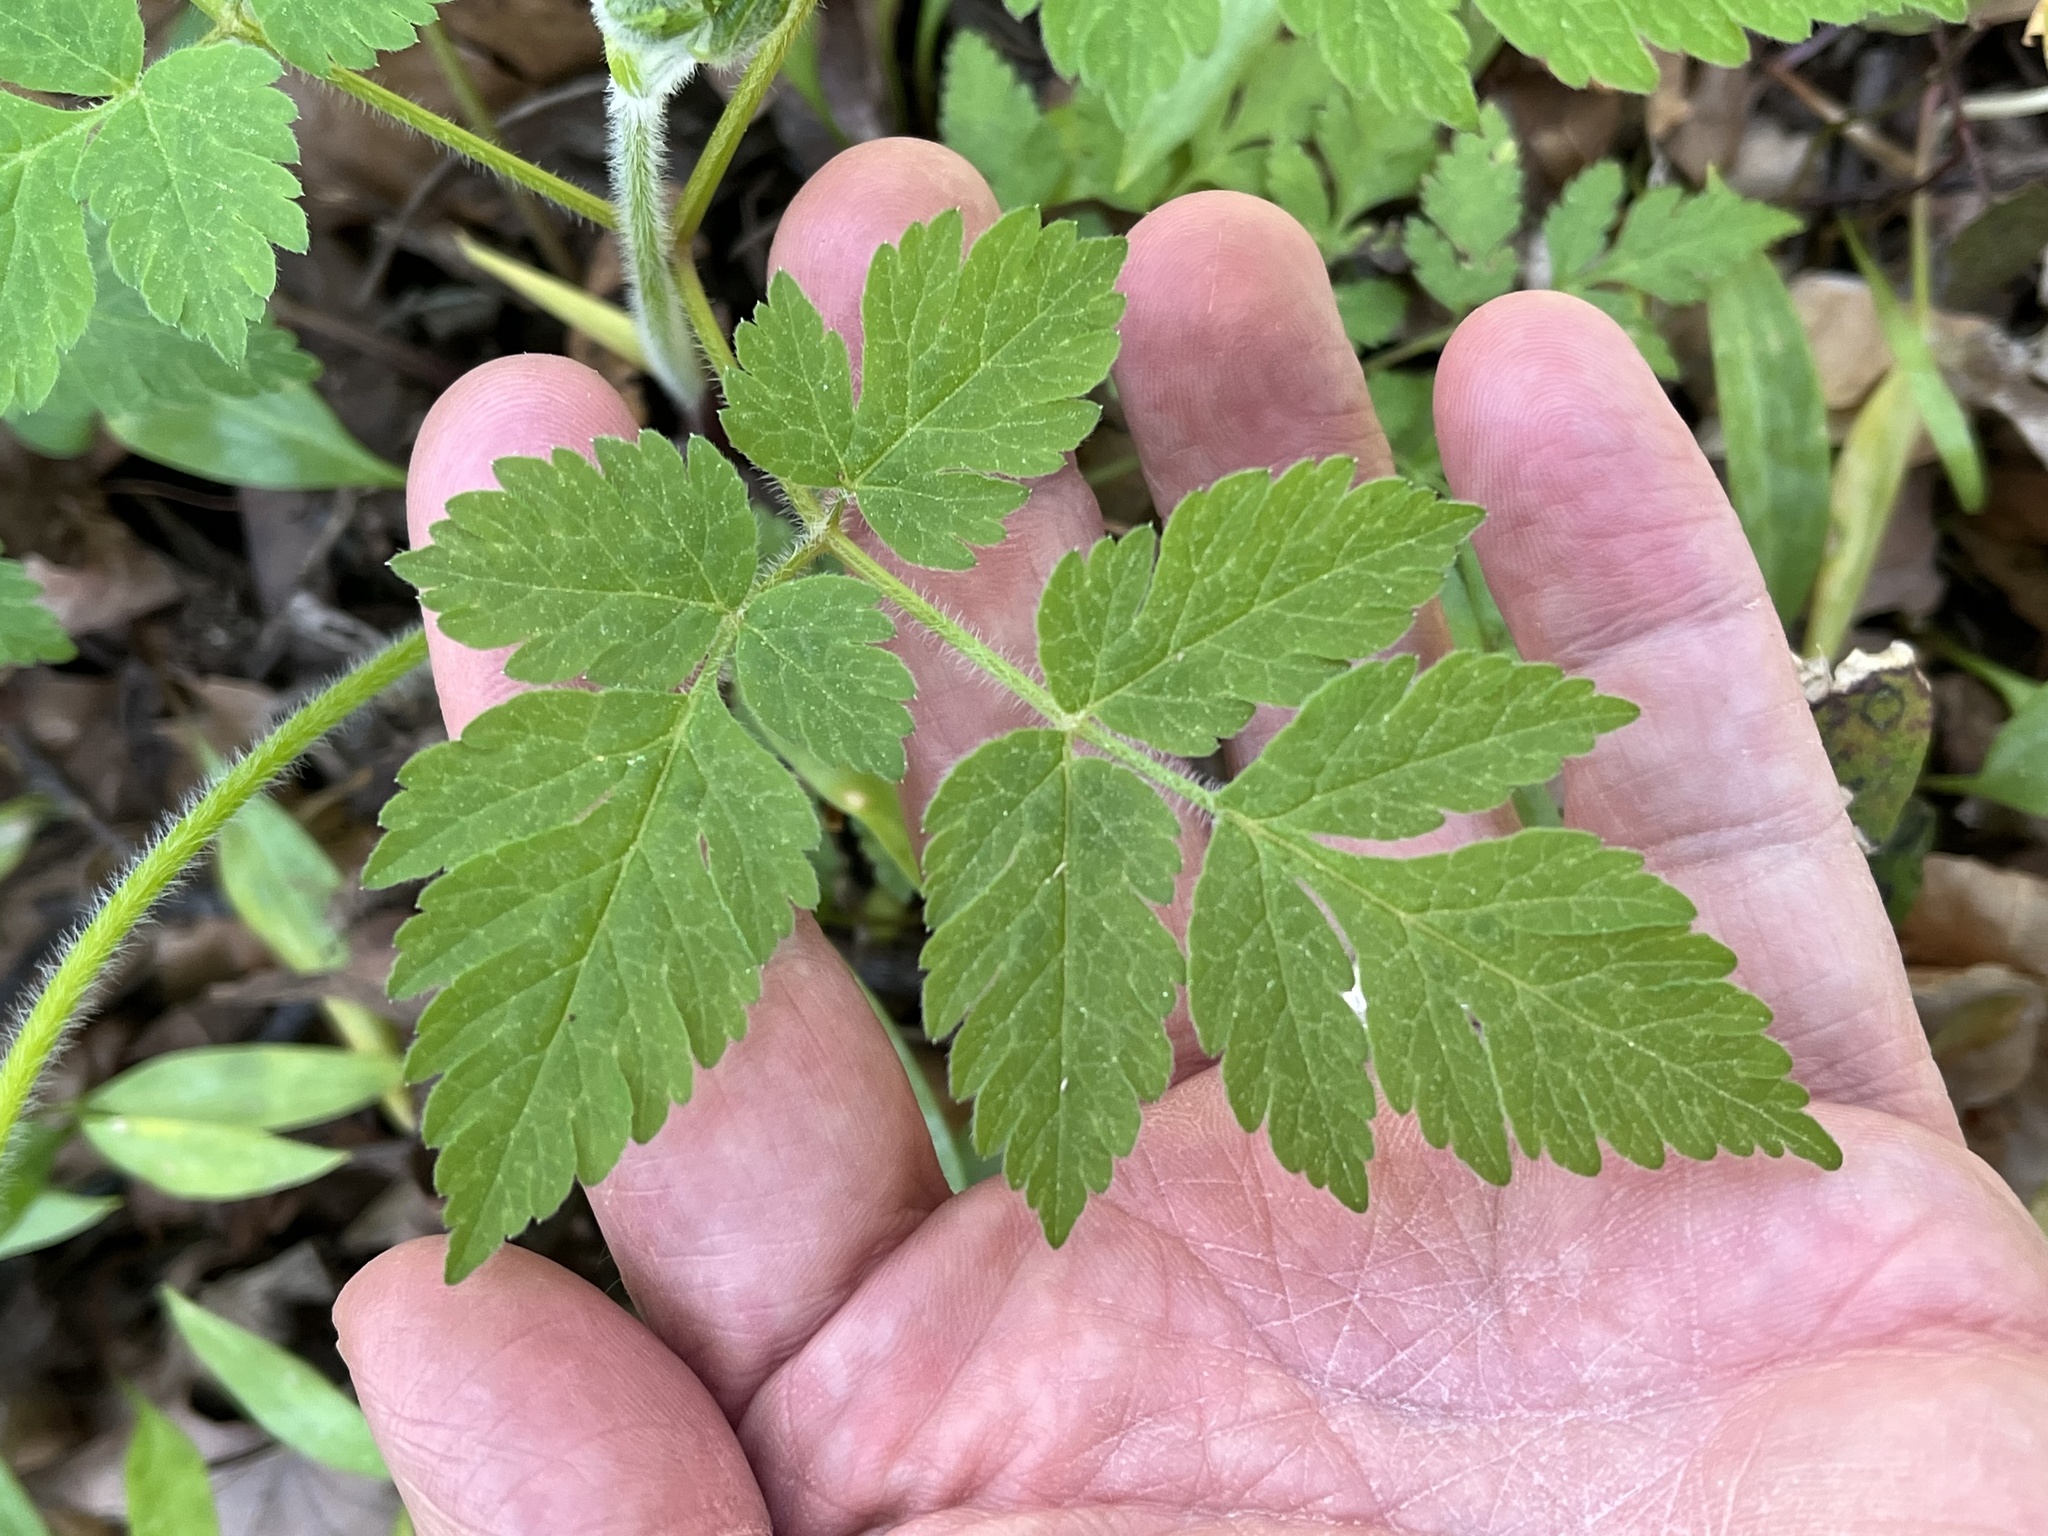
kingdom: Plantae
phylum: Tracheophyta
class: Magnoliopsida
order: Apiales
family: Apiaceae
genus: Osmorhiza
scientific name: Osmorhiza claytonii
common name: Hairy sweet cicely
